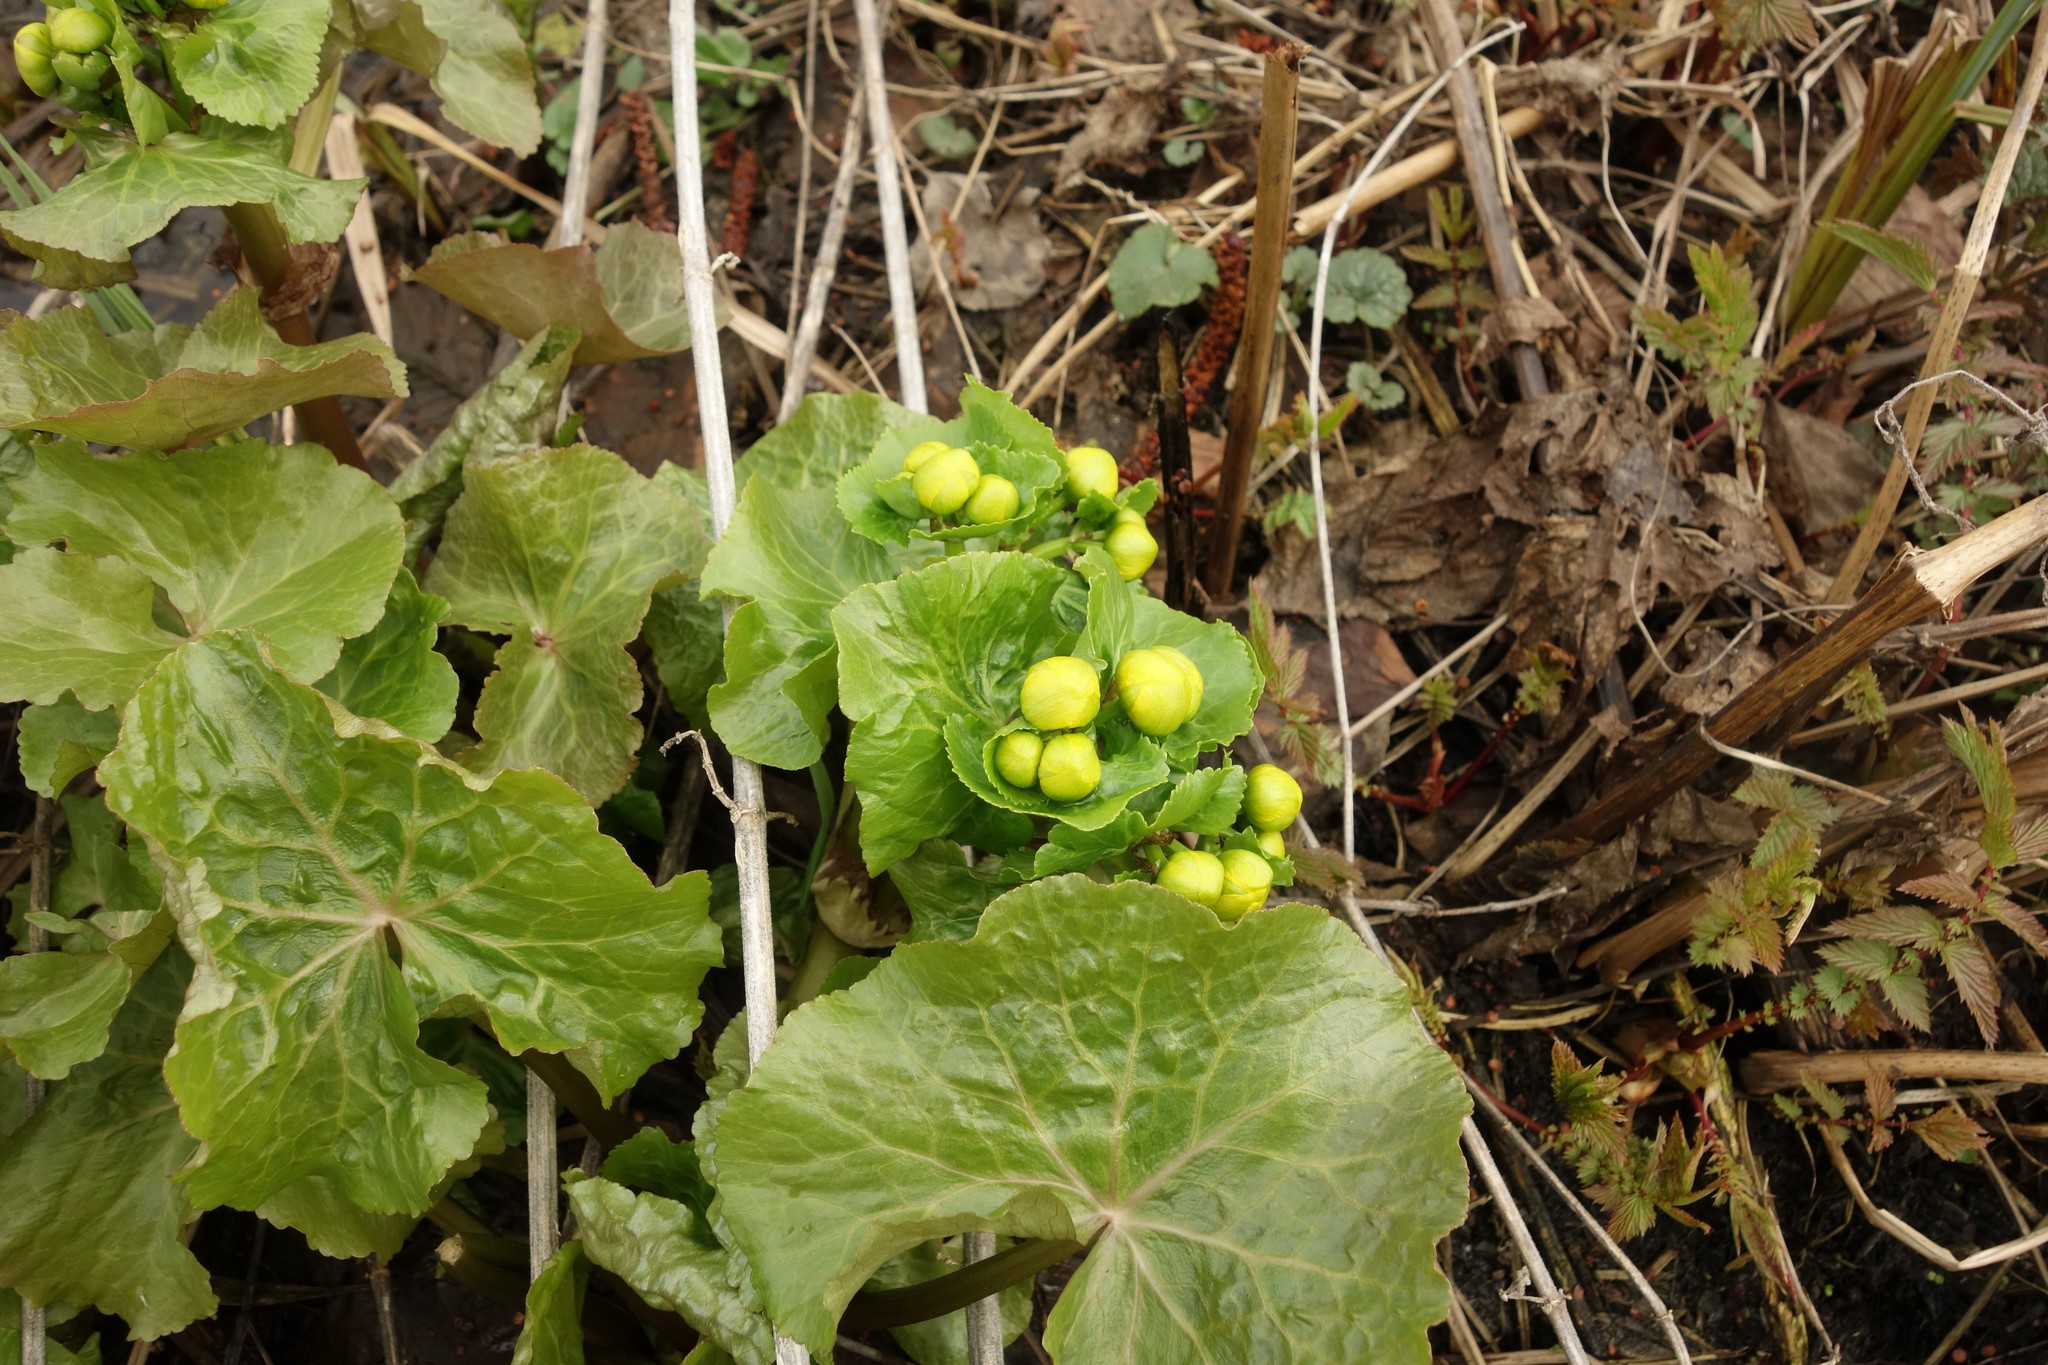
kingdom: Plantae
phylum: Tracheophyta
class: Magnoliopsida
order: Ranunculales
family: Ranunculaceae
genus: Caltha
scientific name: Caltha palustris
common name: Marsh marigold
